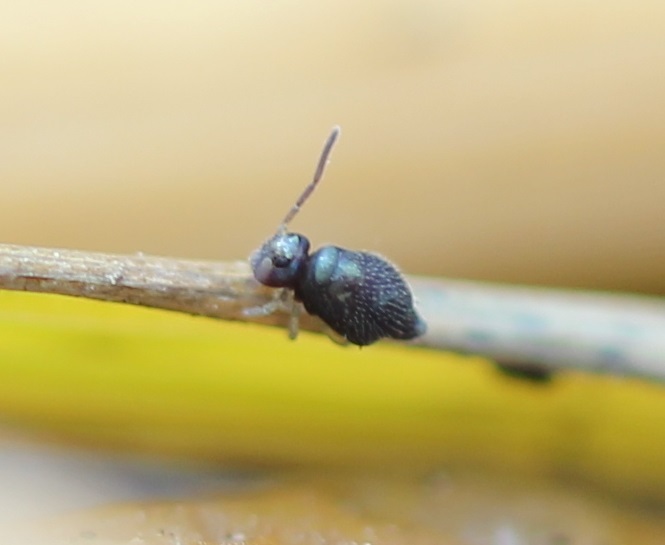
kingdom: Animalia
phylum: Arthropoda
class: Collembola
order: Symphypleona
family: Bourletiellidae
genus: Pseudobourletiella
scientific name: Pseudobourletiella spinata
